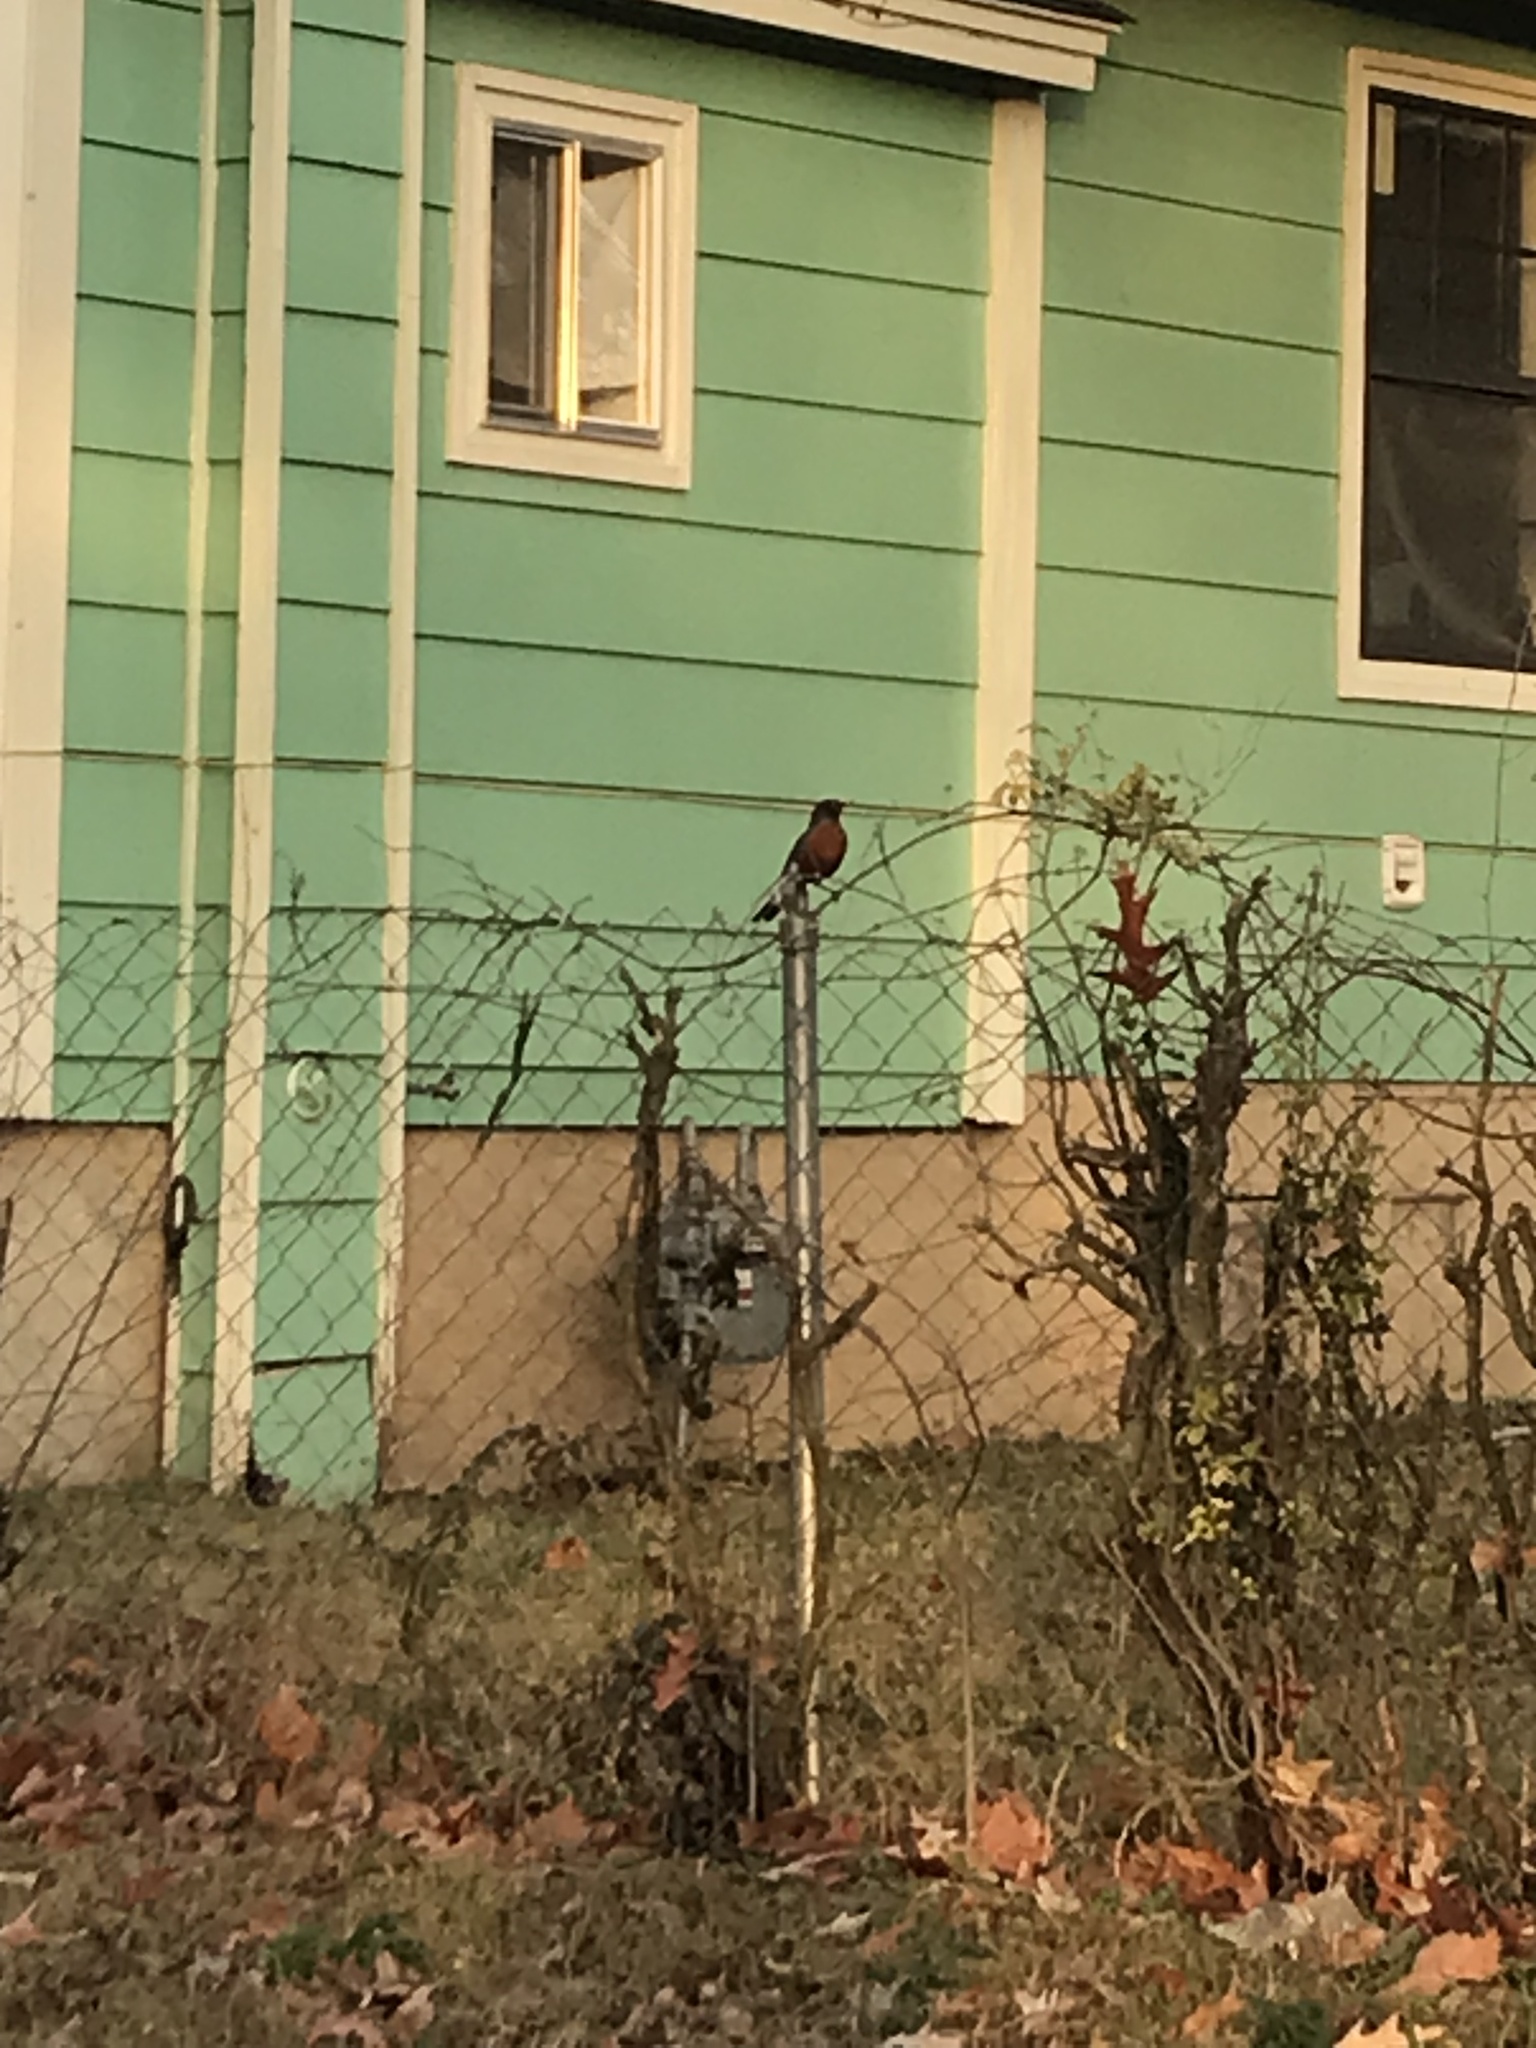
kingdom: Animalia
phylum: Chordata
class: Aves
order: Passeriformes
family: Turdidae
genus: Turdus
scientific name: Turdus migratorius
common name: American robin
